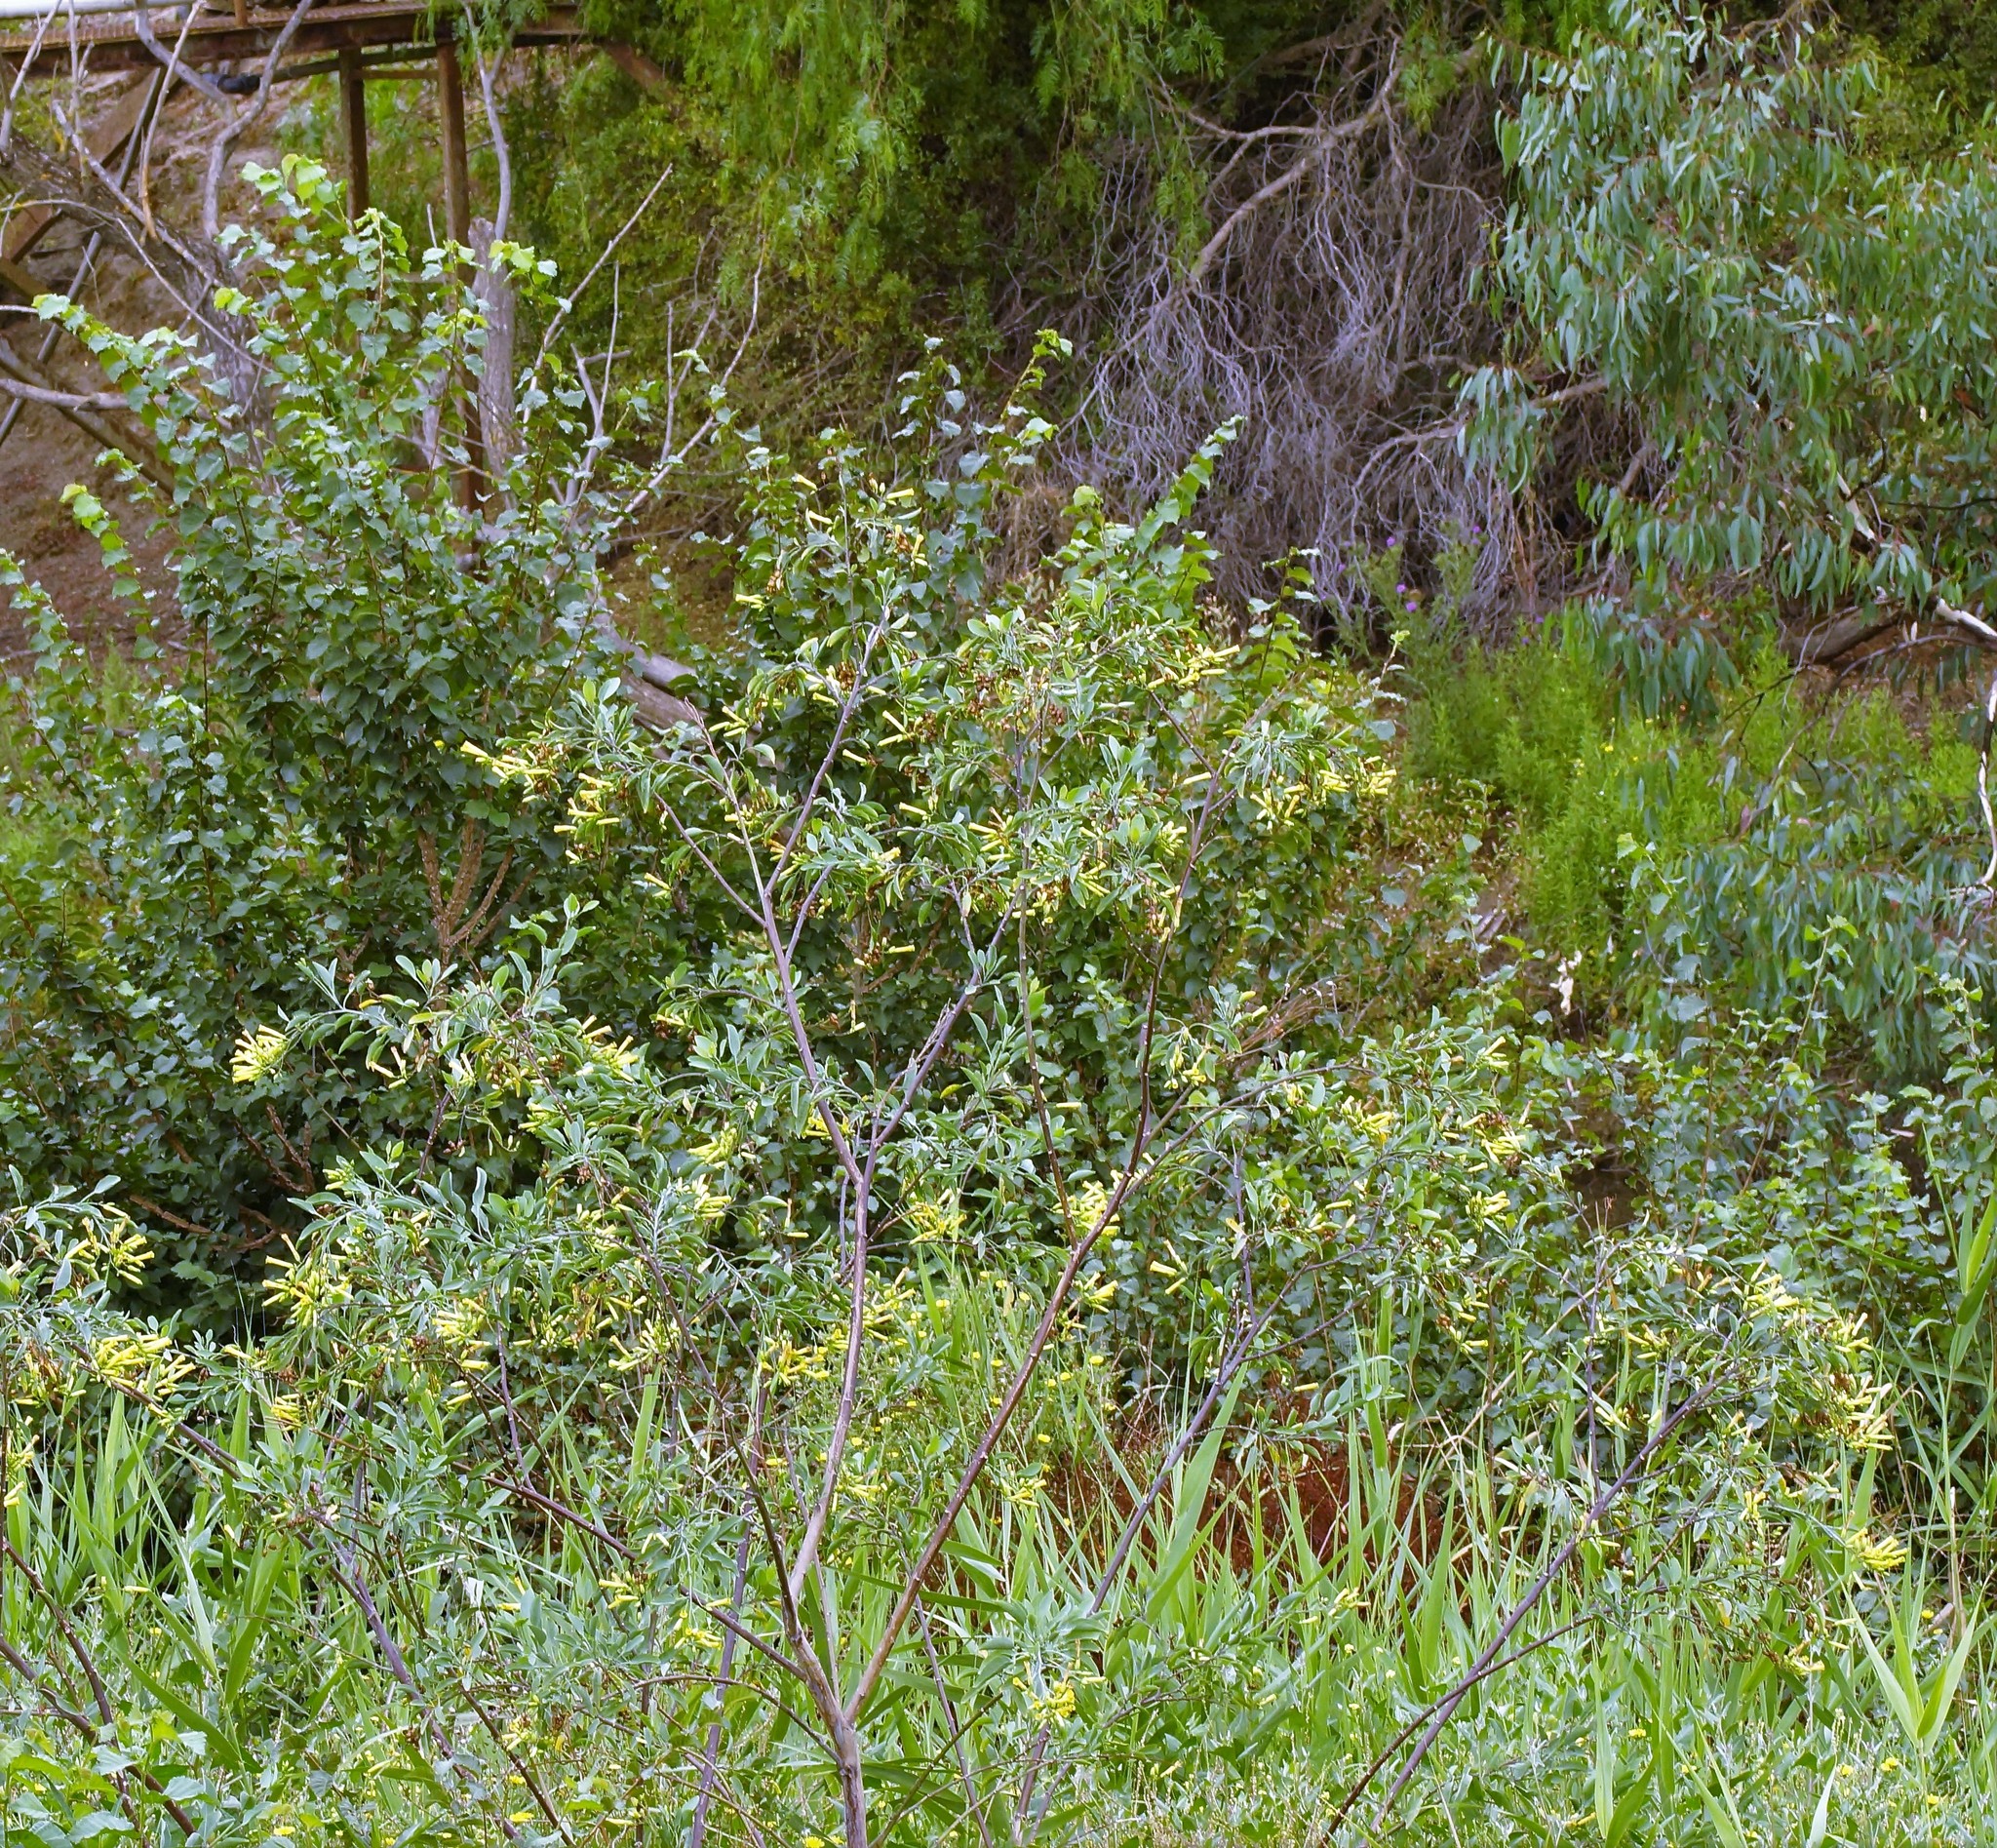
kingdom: Plantae
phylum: Tracheophyta
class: Magnoliopsida
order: Solanales
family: Solanaceae
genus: Nicotiana
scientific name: Nicotiana glauca
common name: Tree tobacco
